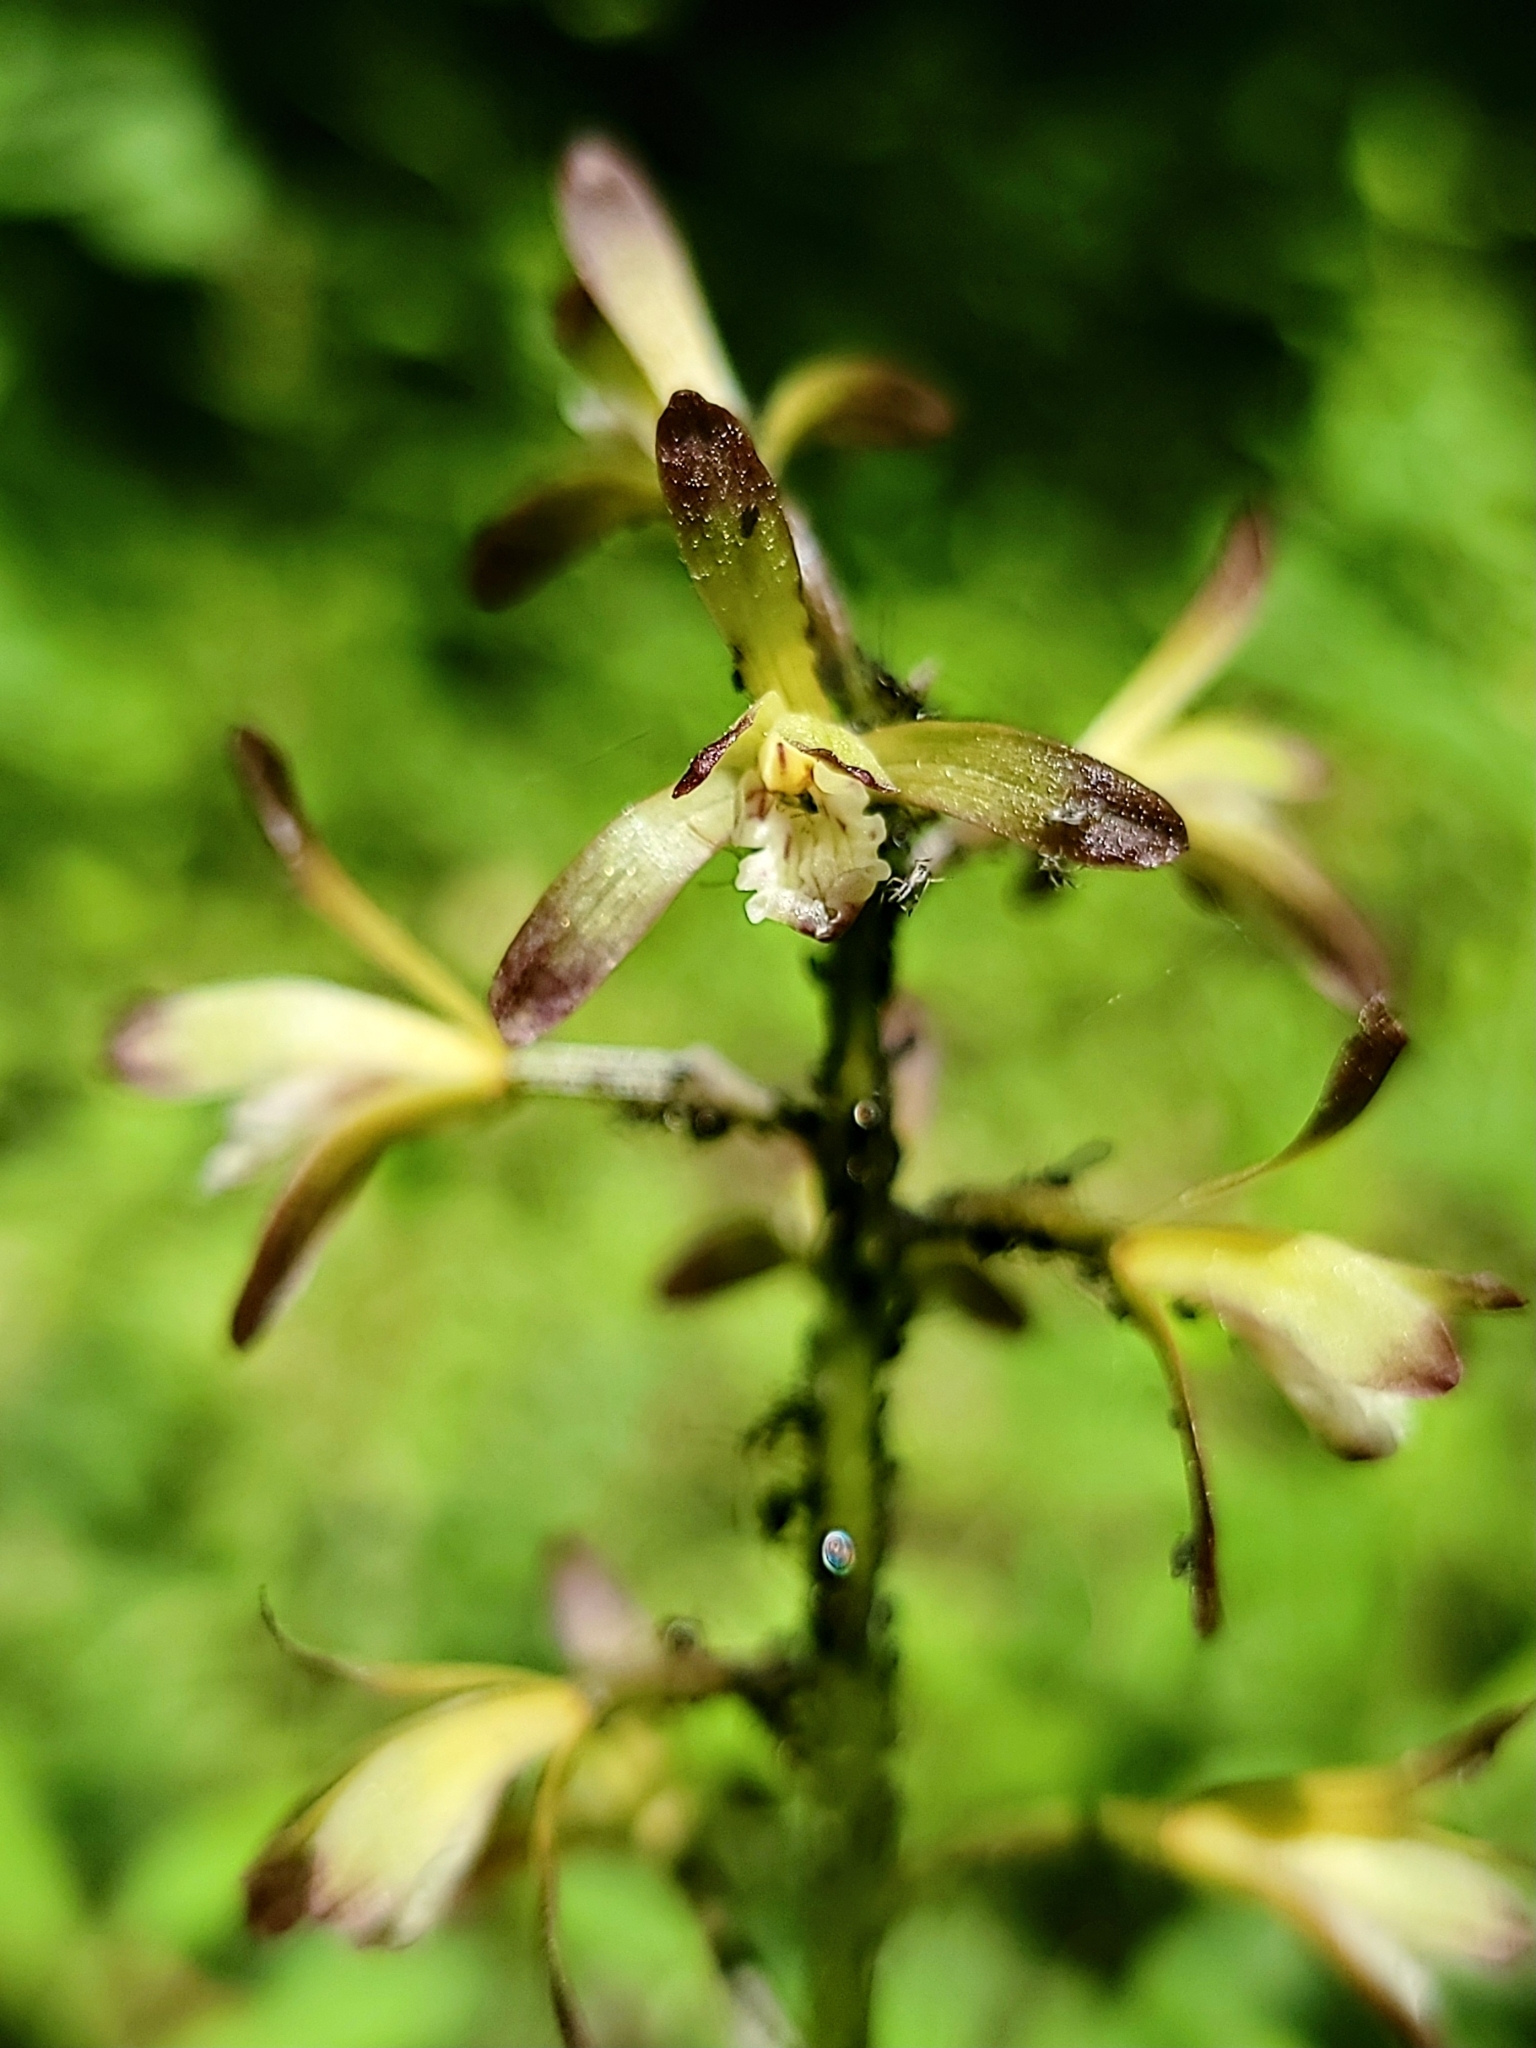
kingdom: Plantae
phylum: Tracheophyta
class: Liliopsida
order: Asparagales
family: Orchidaceae
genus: Aplectrum
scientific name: Aplectrum hyemale
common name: Adam-and-eve
